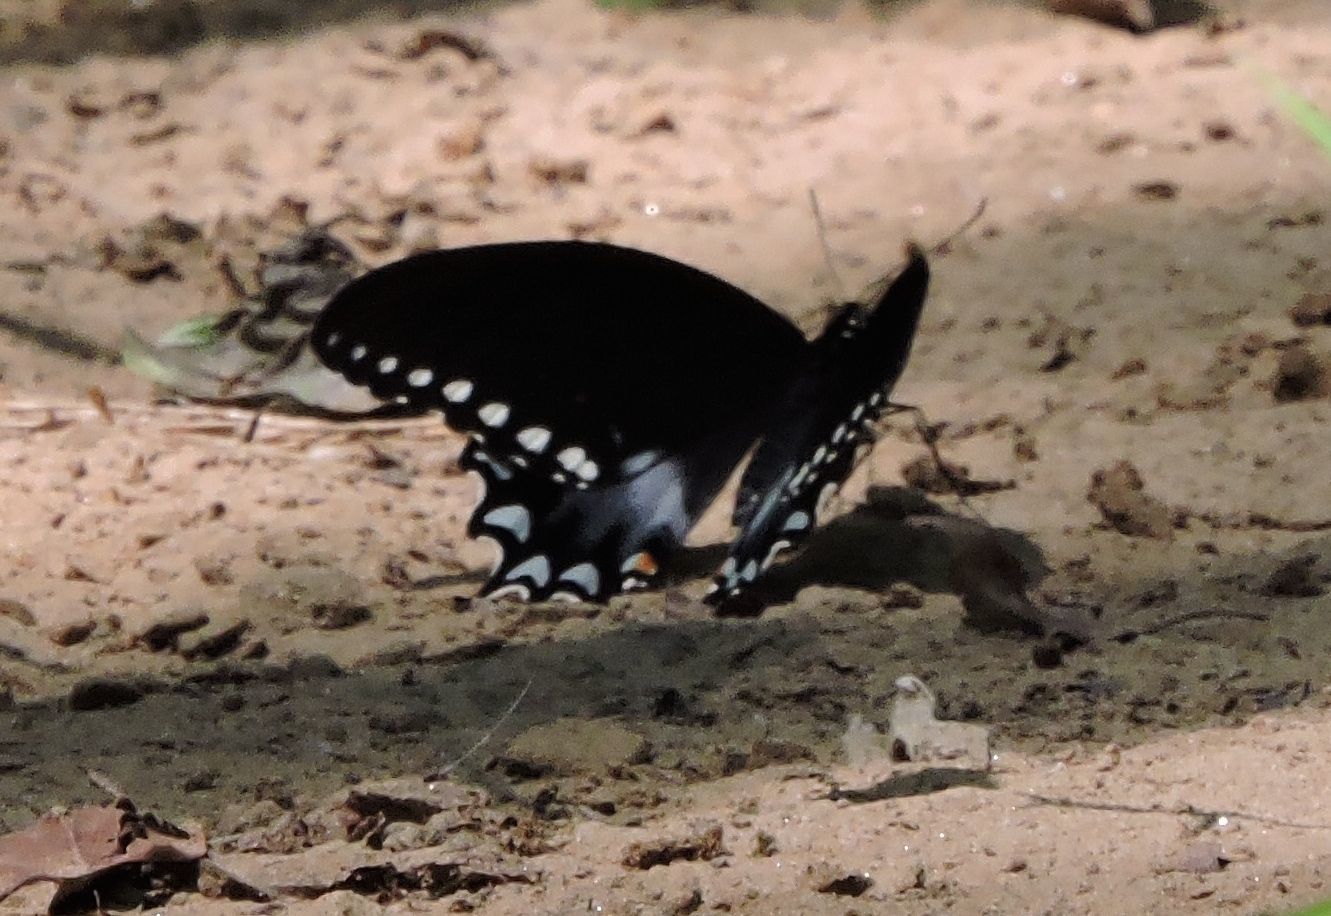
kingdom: Animalia
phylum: Arthropoda
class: Insecta
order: Lepidoptera
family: Papilionidae
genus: Papilio
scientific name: Papilio troilus
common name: Spicebush swallowtail
